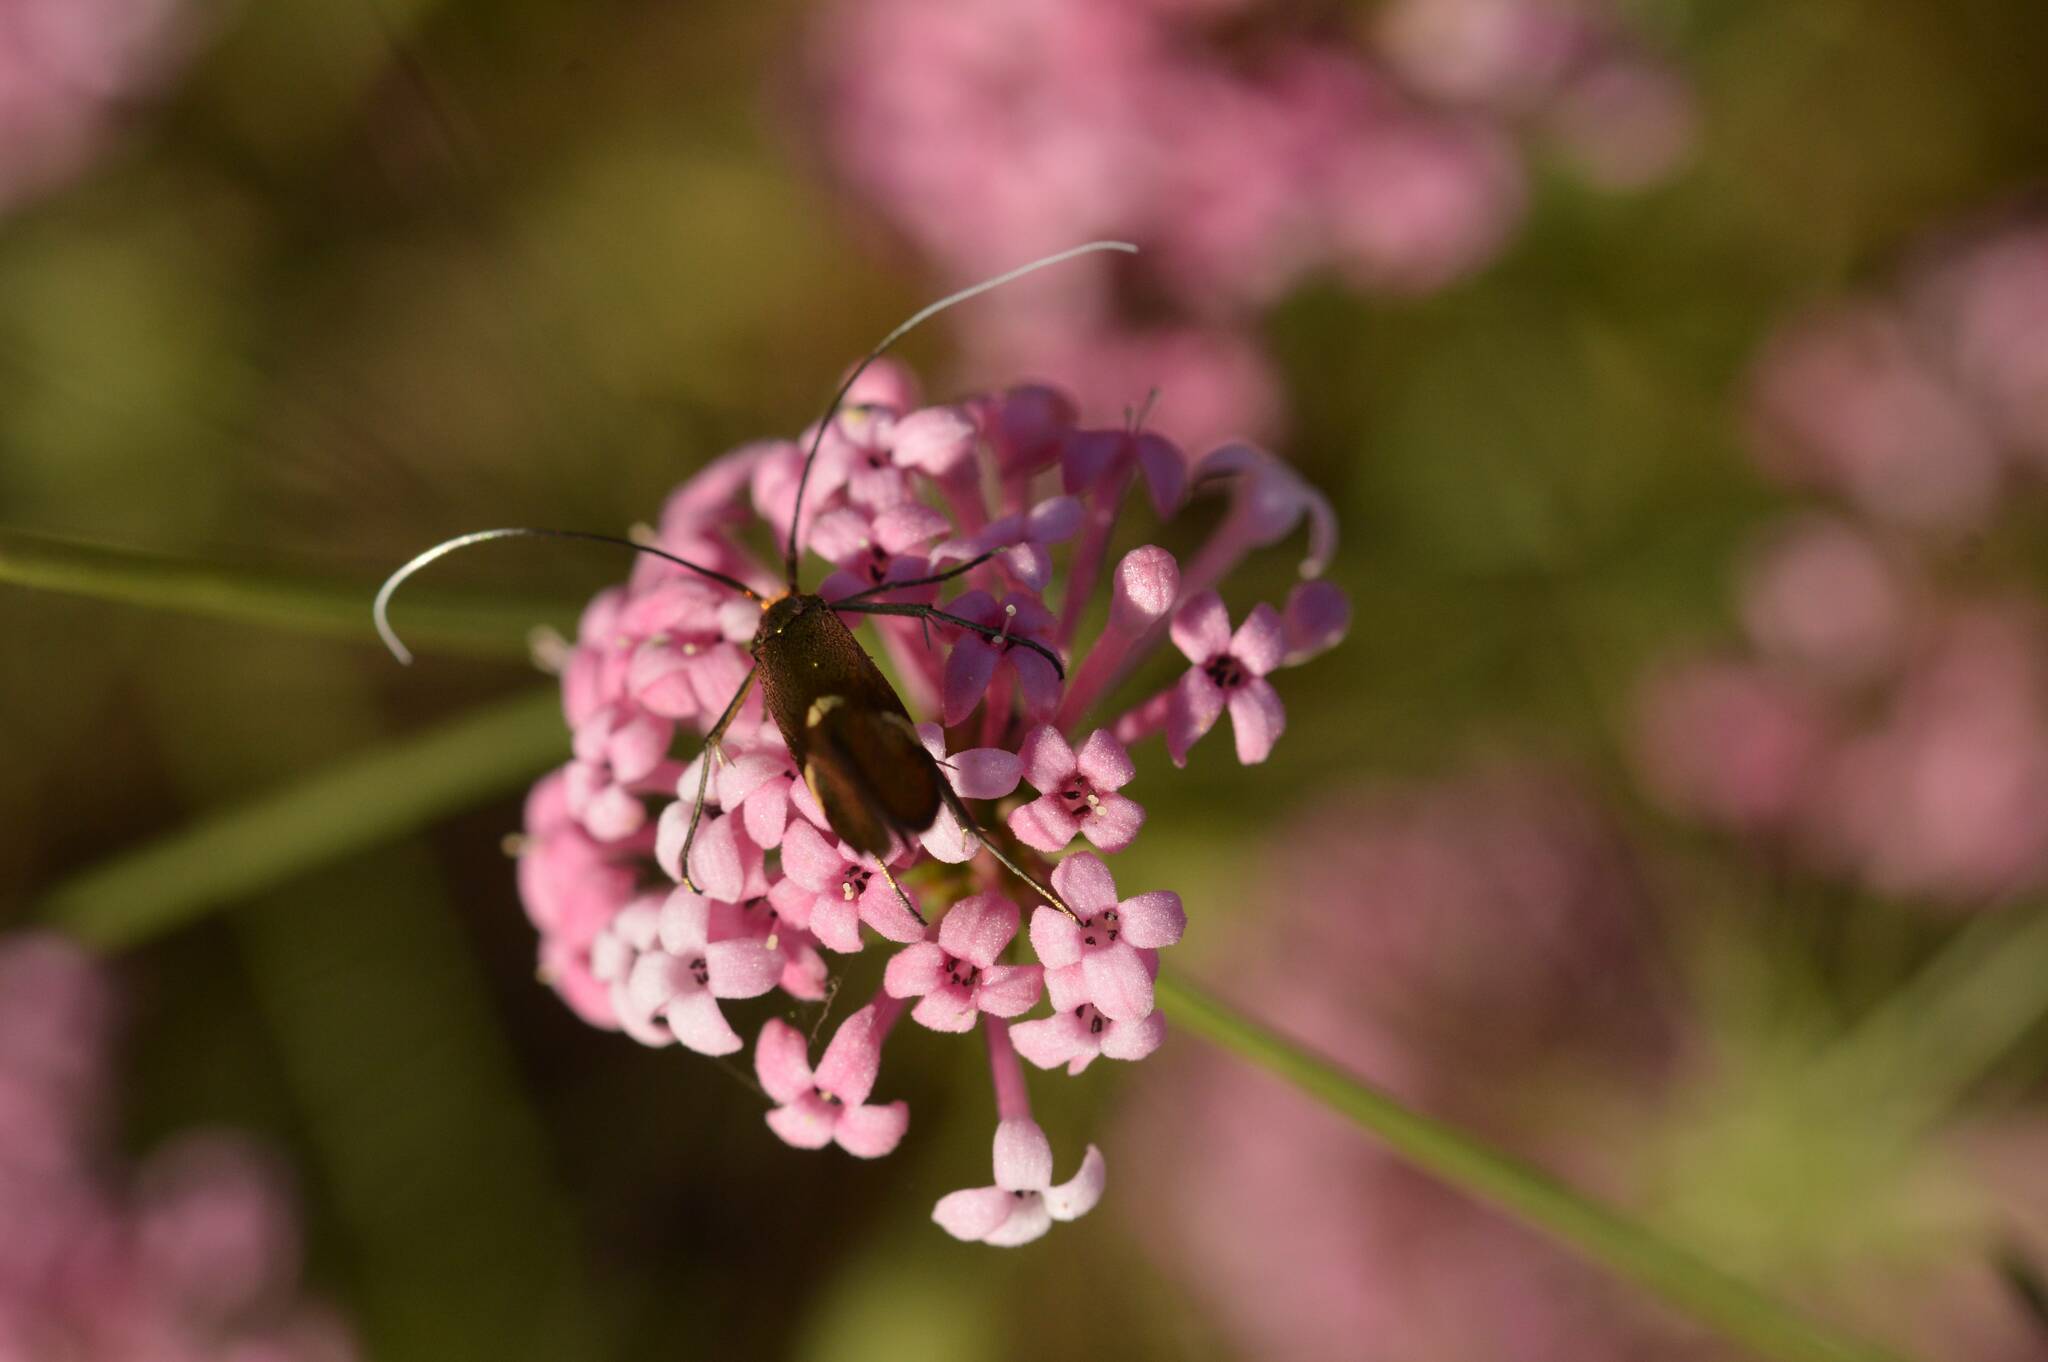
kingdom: Animalia
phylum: Arthropoda
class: Insecta
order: Lepidoptera
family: Adelidae
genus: Nemophora
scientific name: Nemophora raddaella
